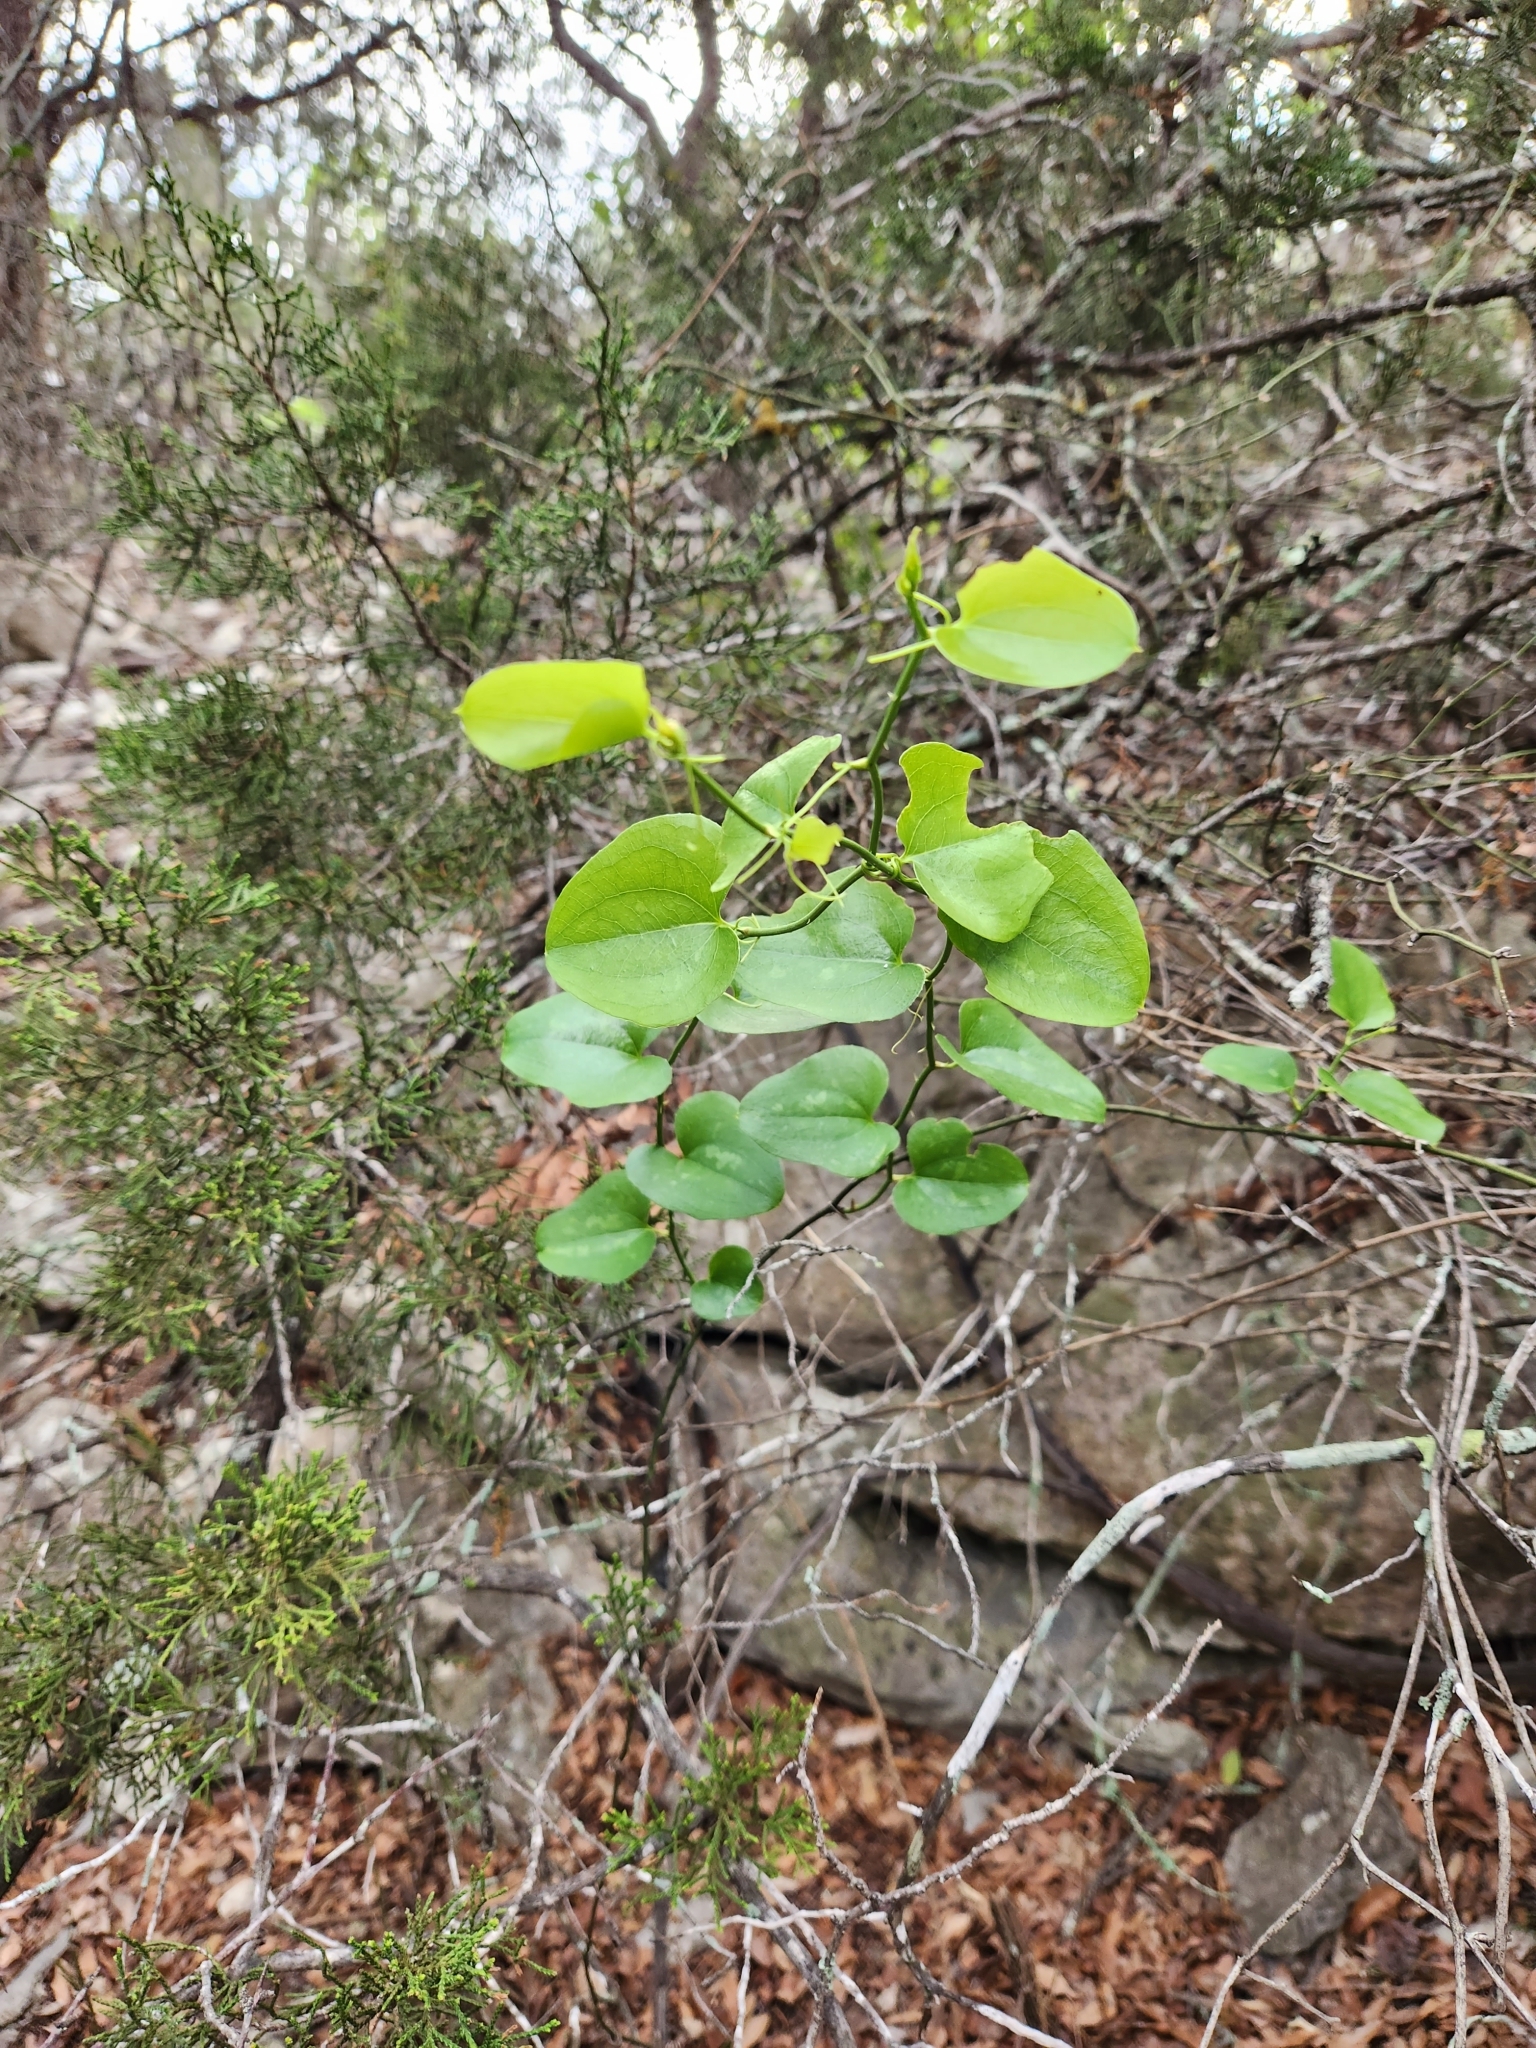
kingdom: Plantae
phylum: Tracheophyta
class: Liliopsida
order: Liliales
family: Smilacaceae
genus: Smilax
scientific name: Smilax bona-nox
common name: Catbrier
